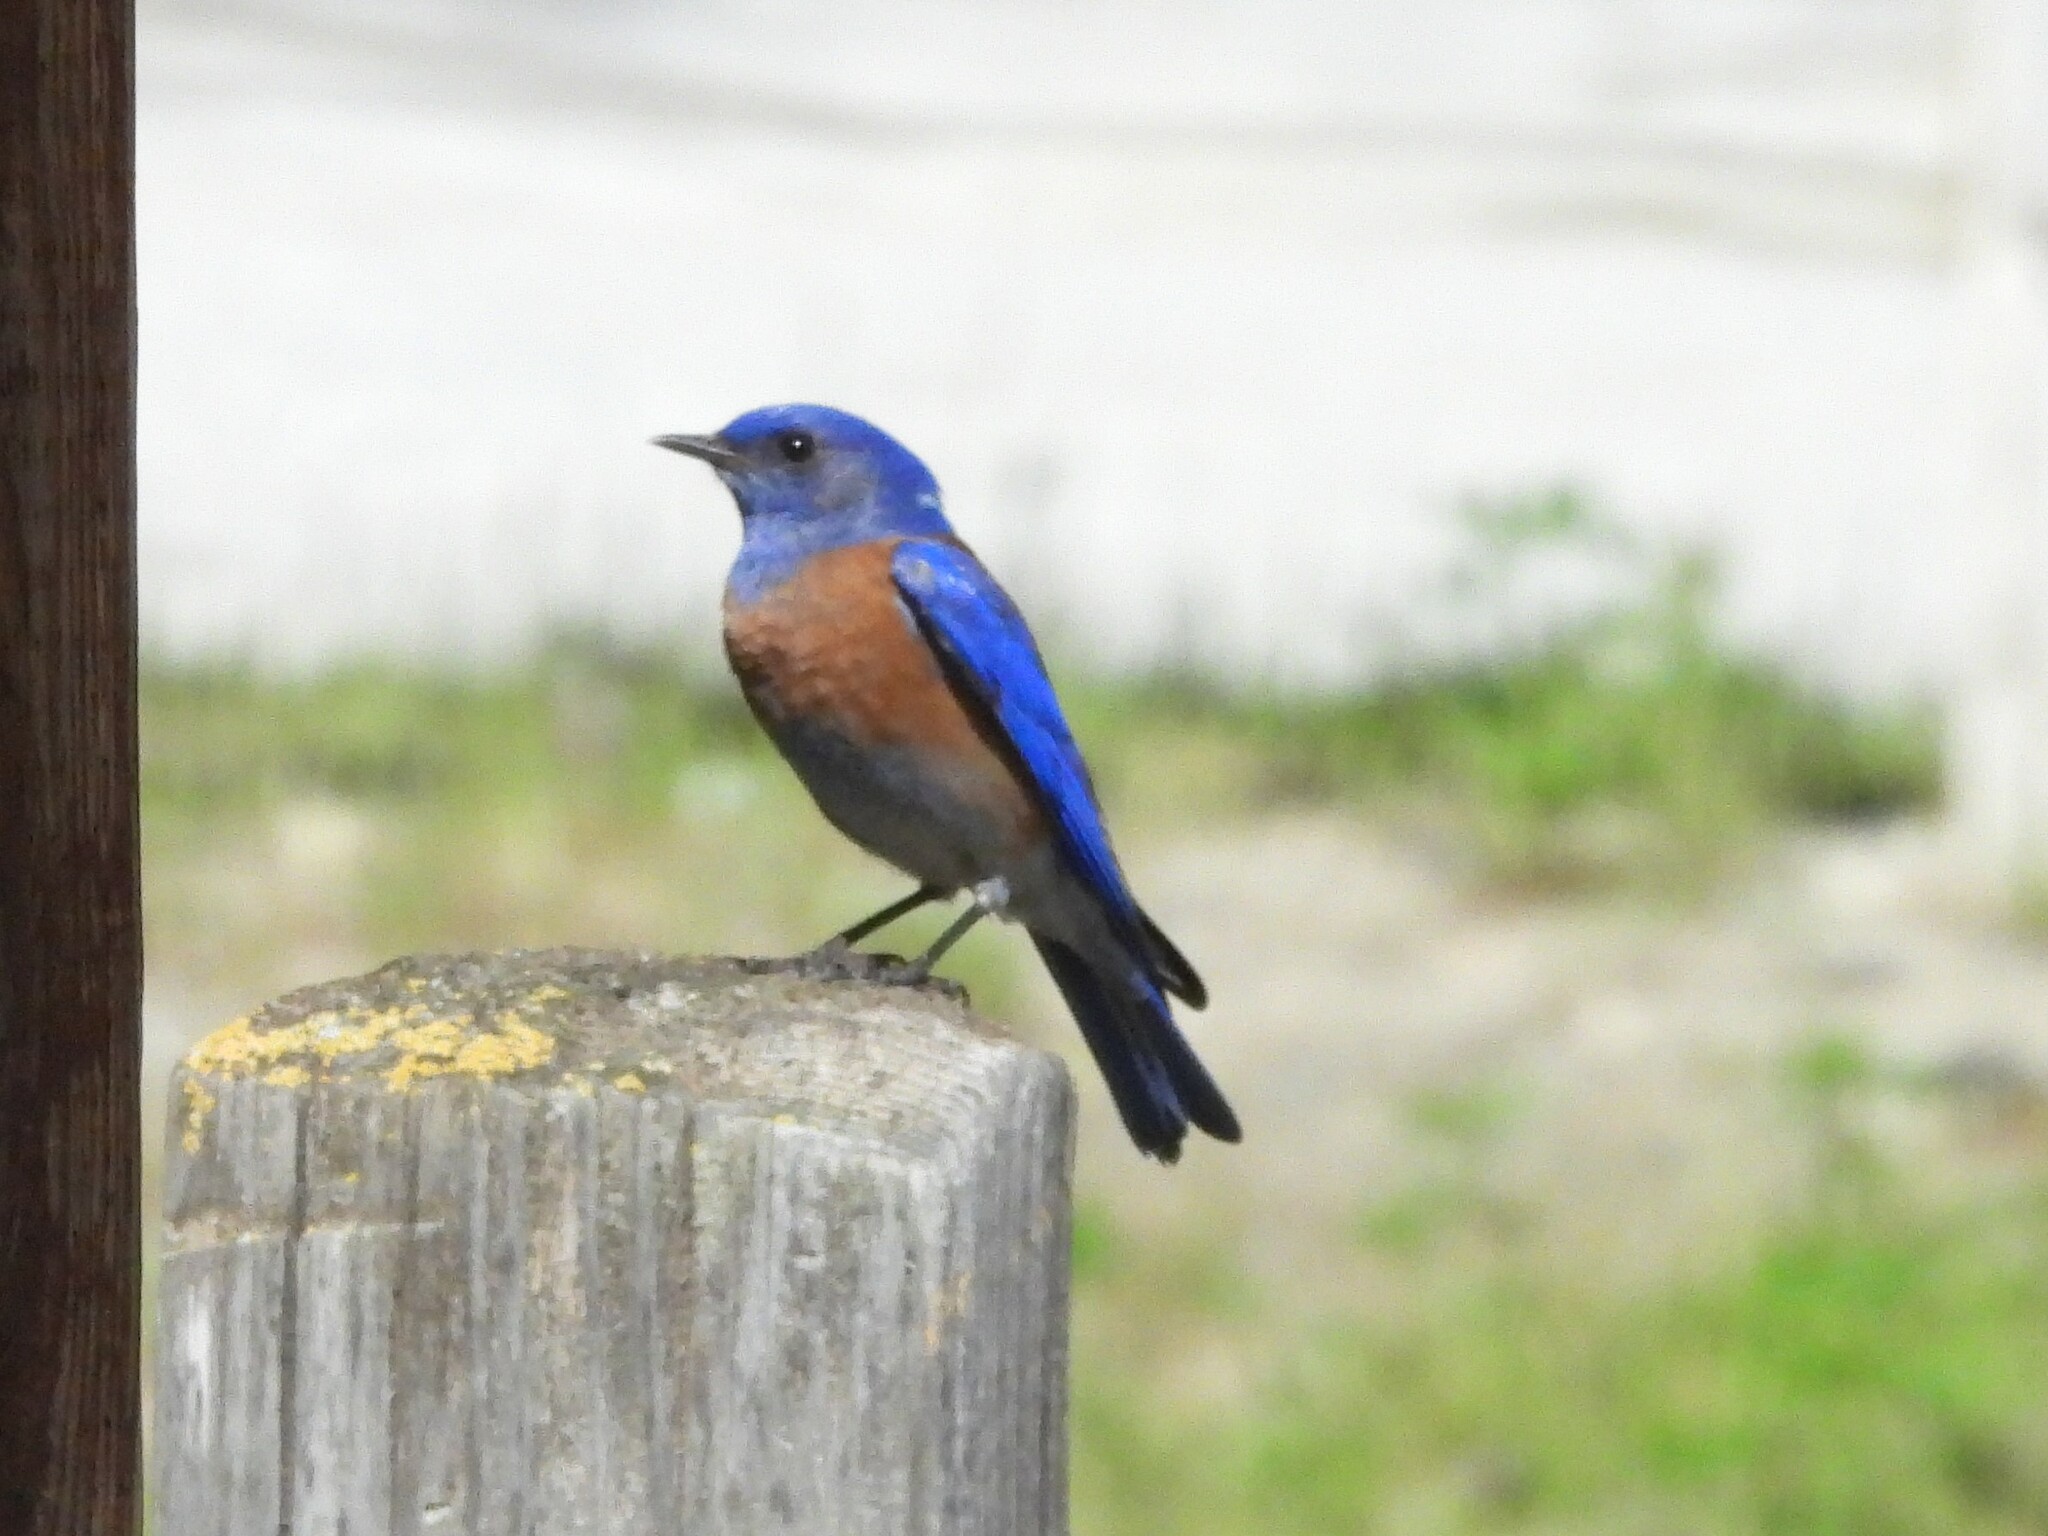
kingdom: Animalia
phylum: Chordata
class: Aves
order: Passeriformes
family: Turdidae
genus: Sialia
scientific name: Sialia mexicana
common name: Western bluebird
